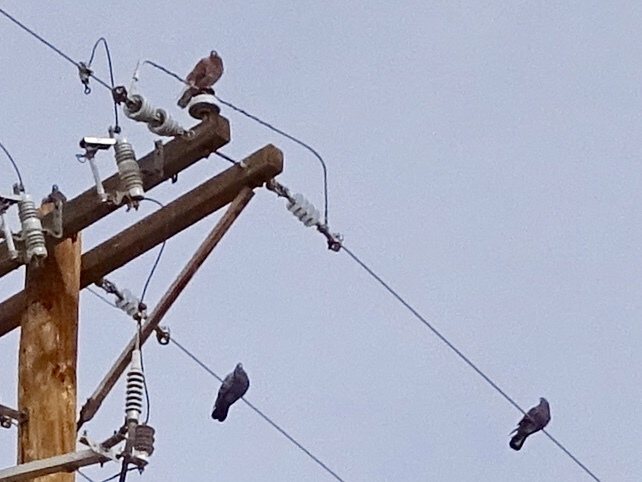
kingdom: Animalia
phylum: Chordata
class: Aves
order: Columbiformes
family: Columbidae
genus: Columba
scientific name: Columba livia
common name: Rock pigeon
